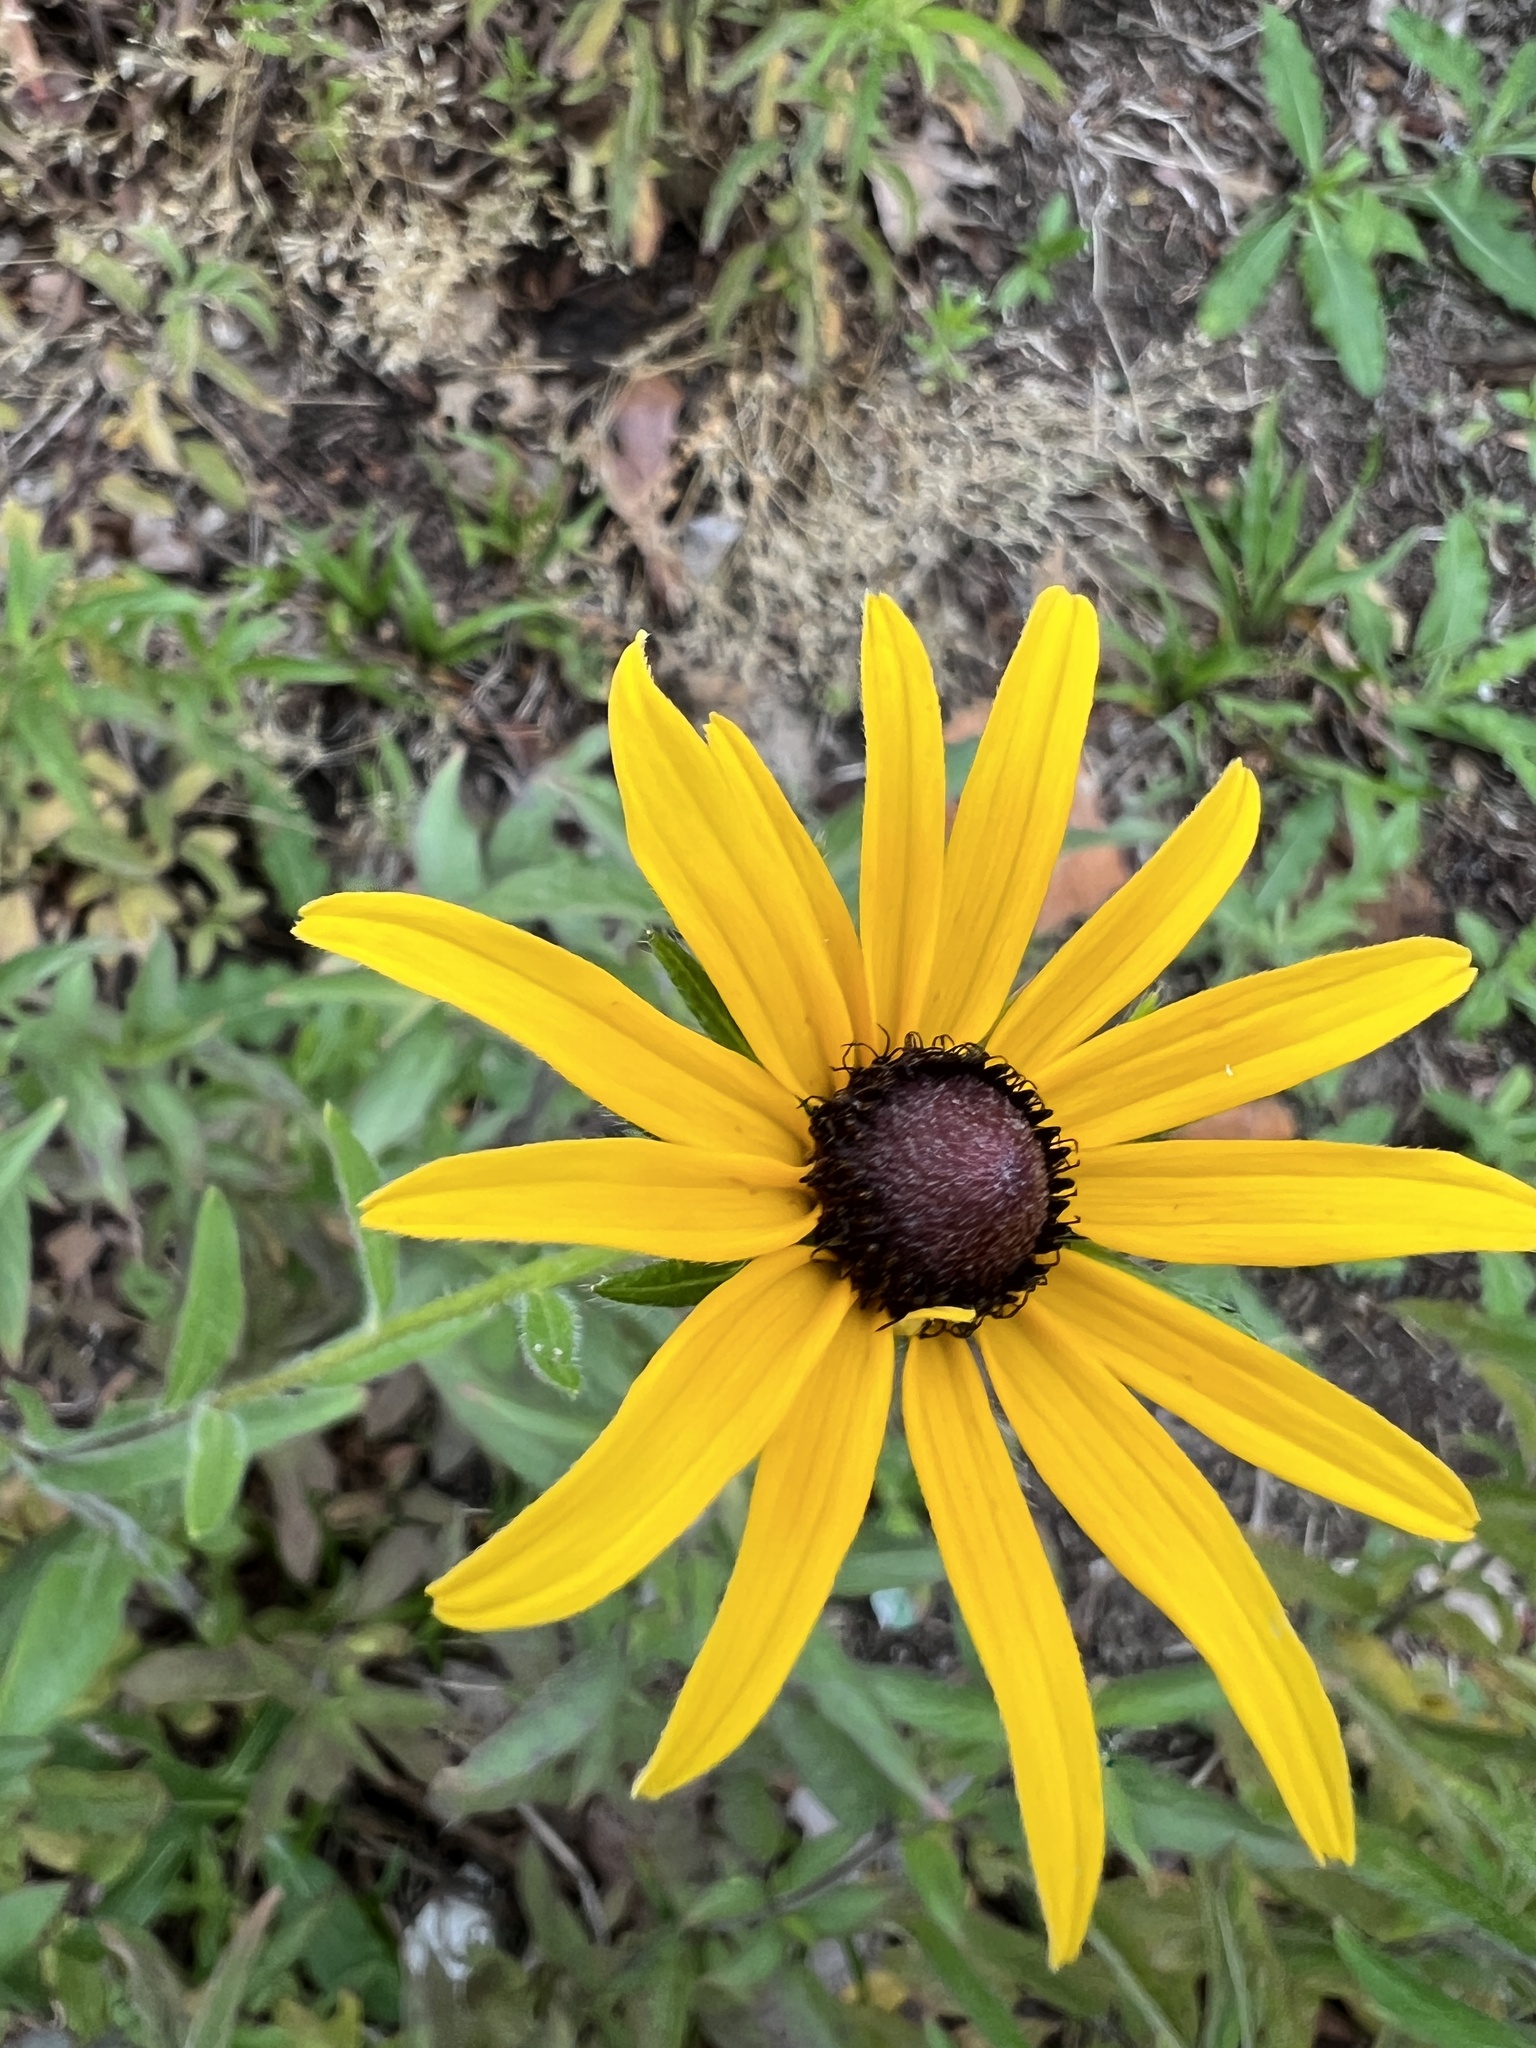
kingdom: Plantae
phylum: Tracheophyta
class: Magnoliopsida
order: Asterales
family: Asteraceae
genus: Rudbeckia
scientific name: Rudbeckia hirta
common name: Black-eyed-susan
